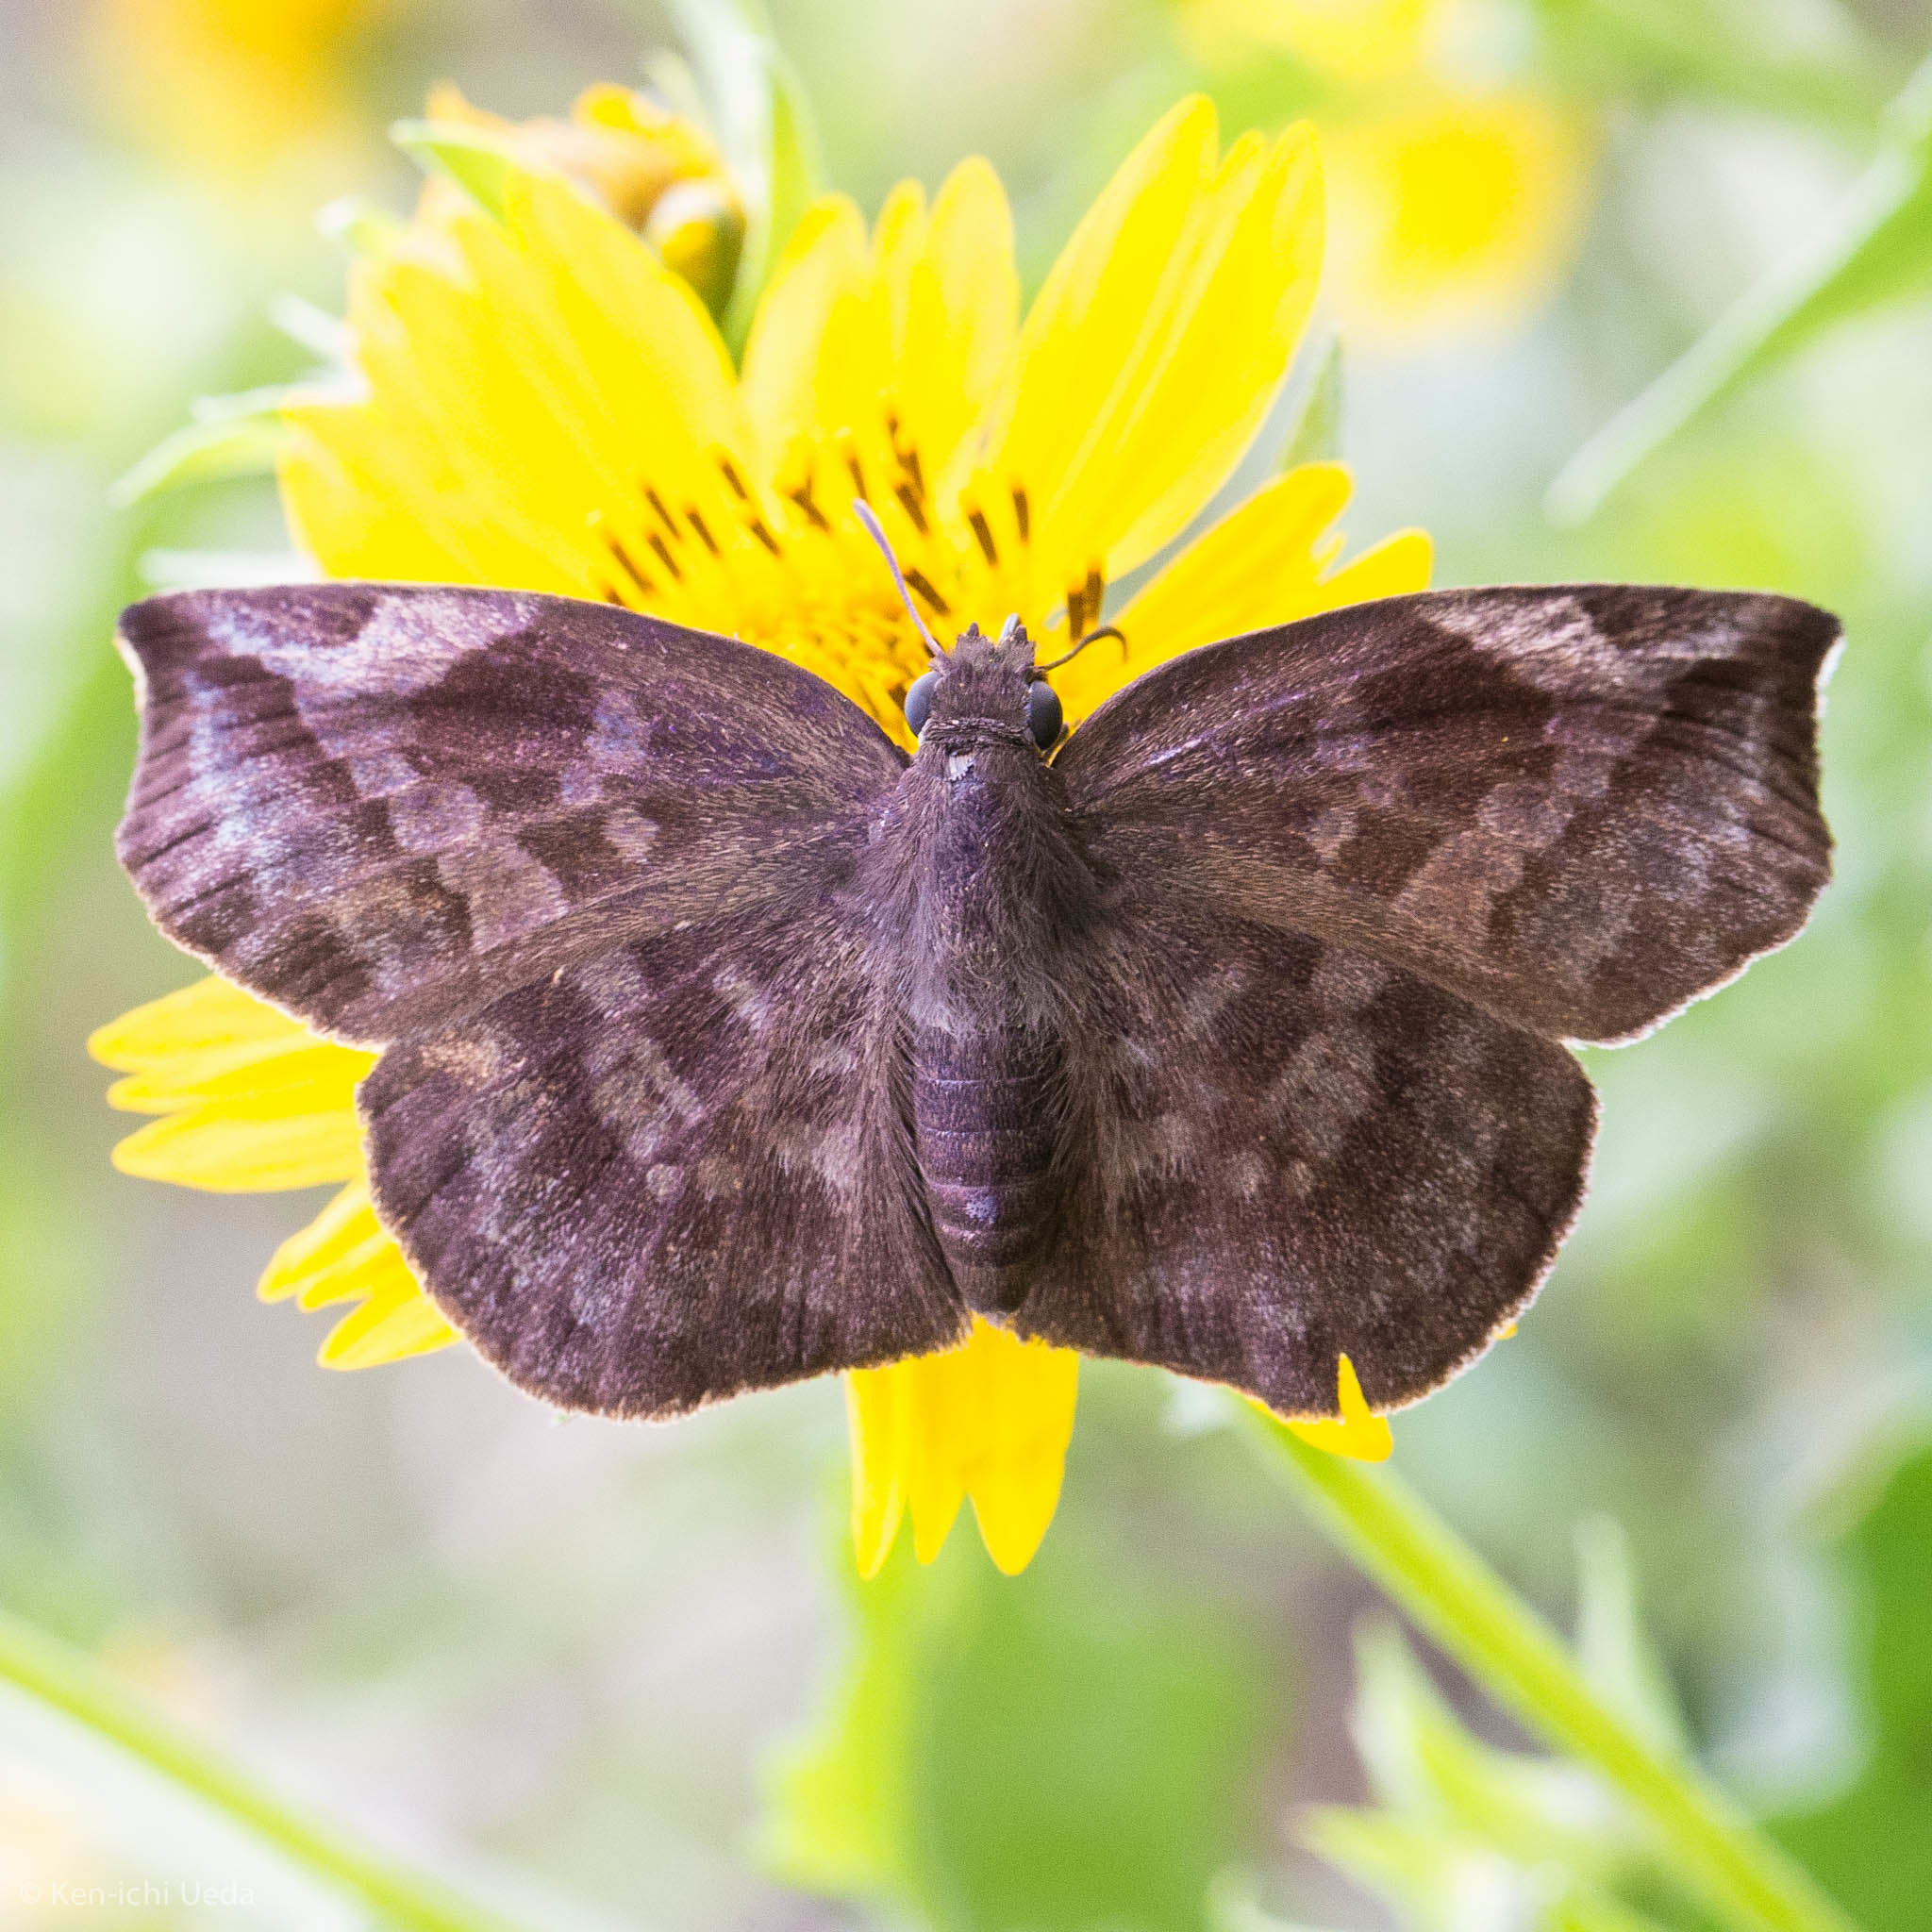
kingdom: Animalia
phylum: Arthropoda
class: Insecta
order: Lepidoptera
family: Hesperiidae
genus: Achlyodes
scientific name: Achlyodes thraso
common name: Sickle-winged skipper
